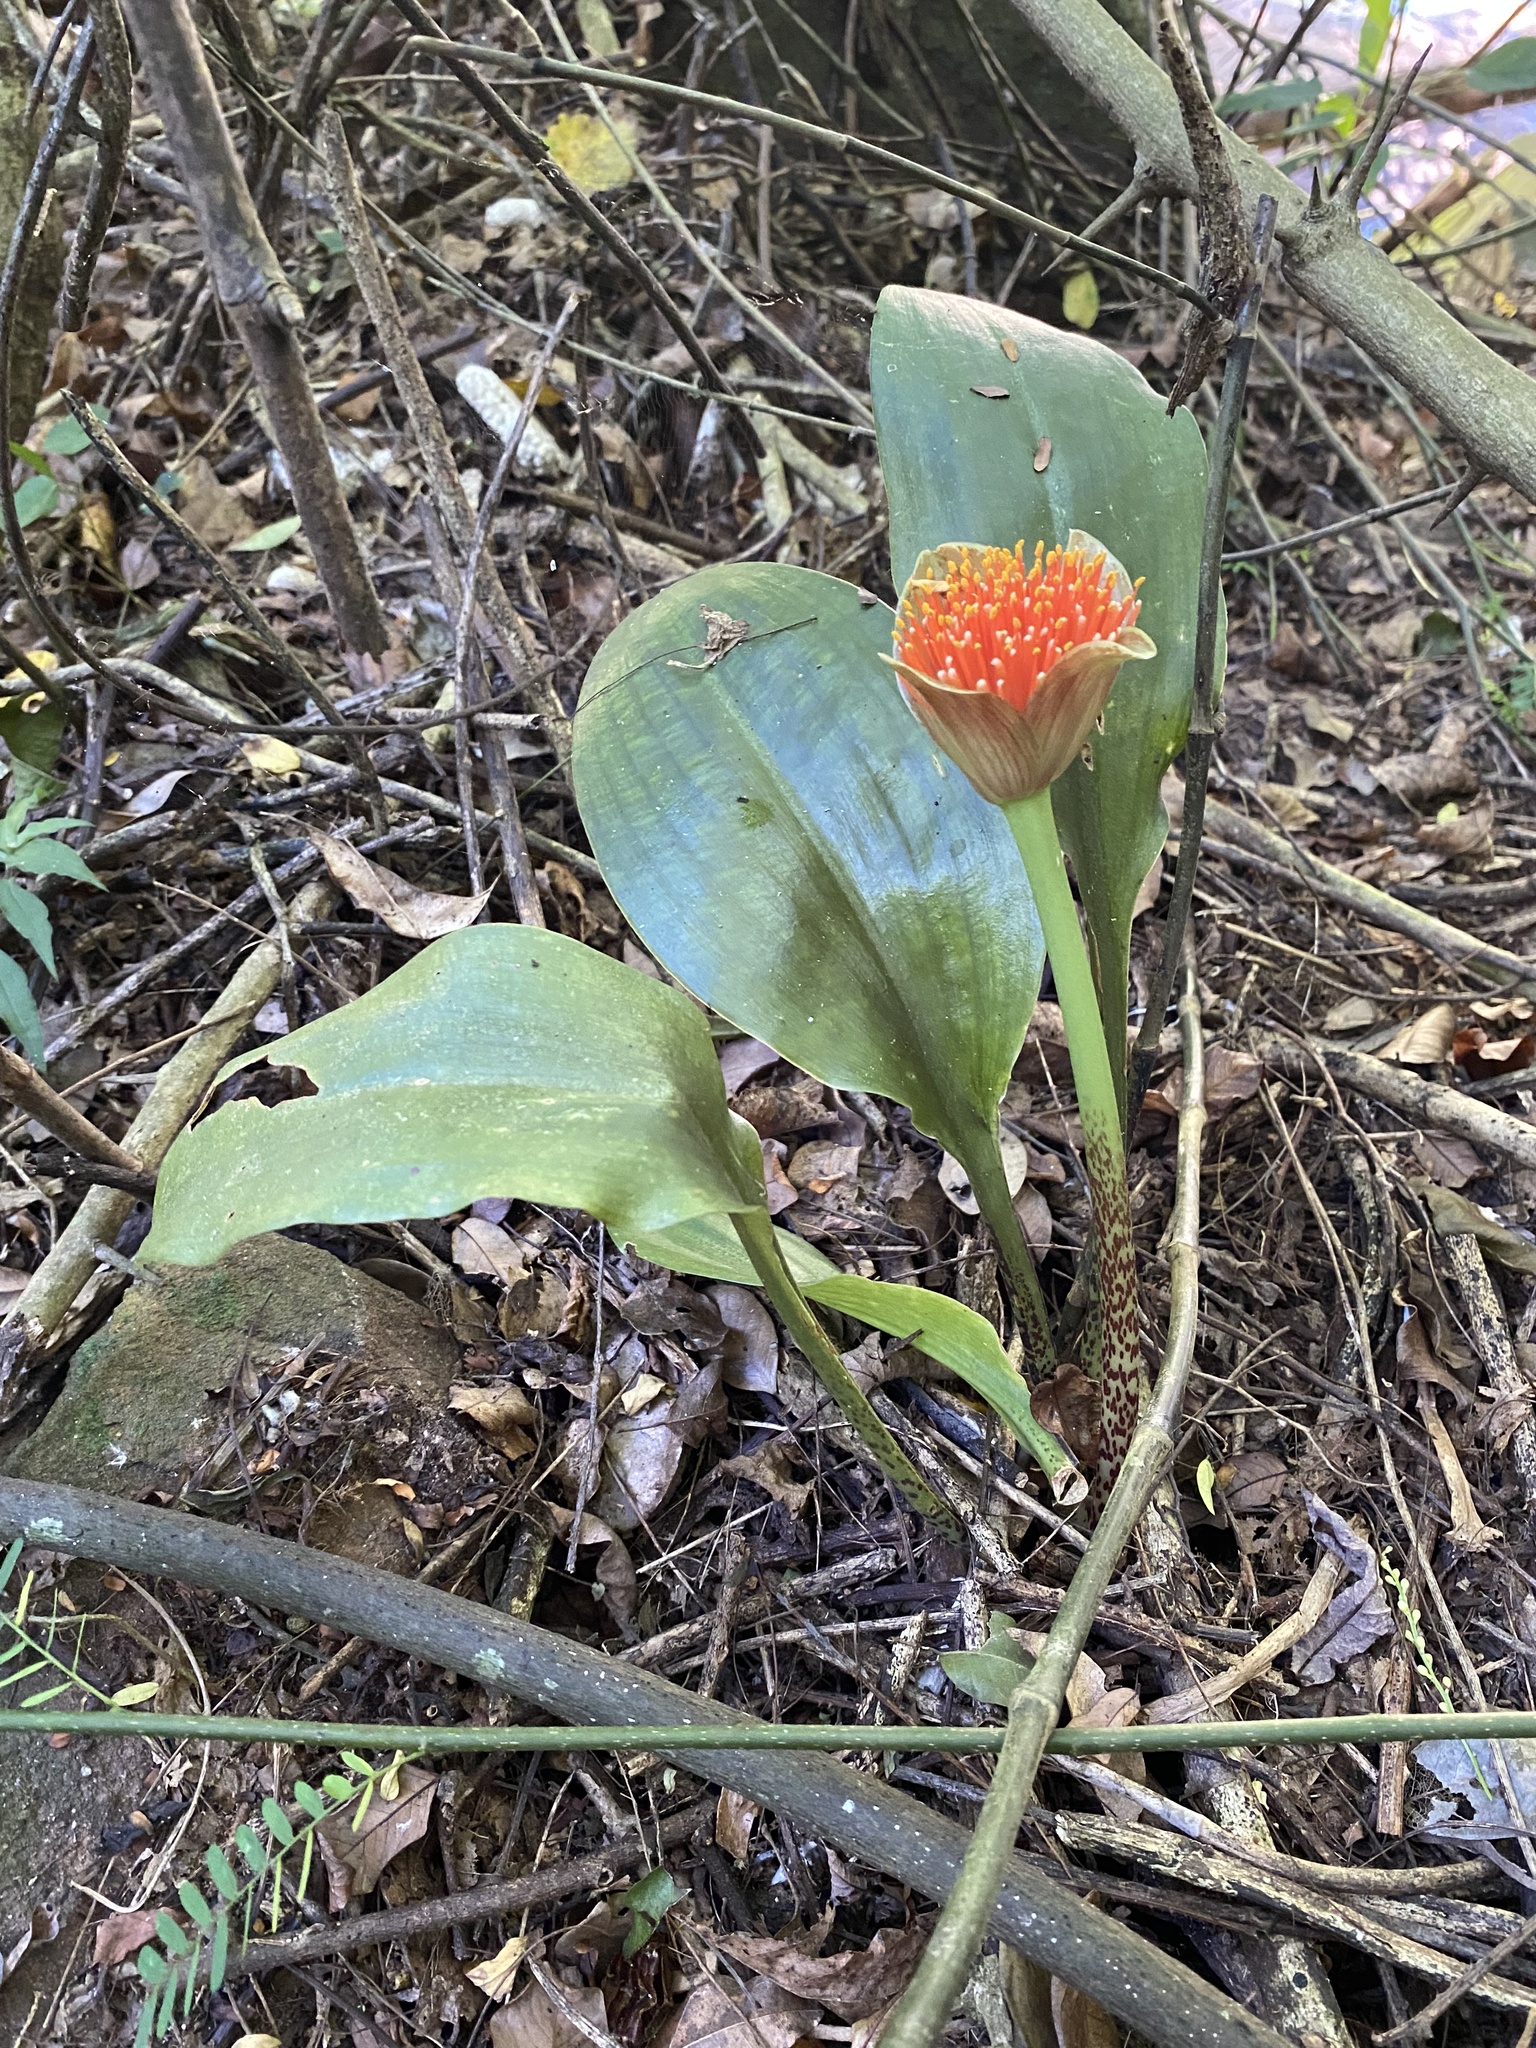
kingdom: Plantae
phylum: Tracheophyta
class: Liliopsida
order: Asparagales
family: Amaryllidaceae
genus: Scadoxus
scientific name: Scadoxus membranaceus
